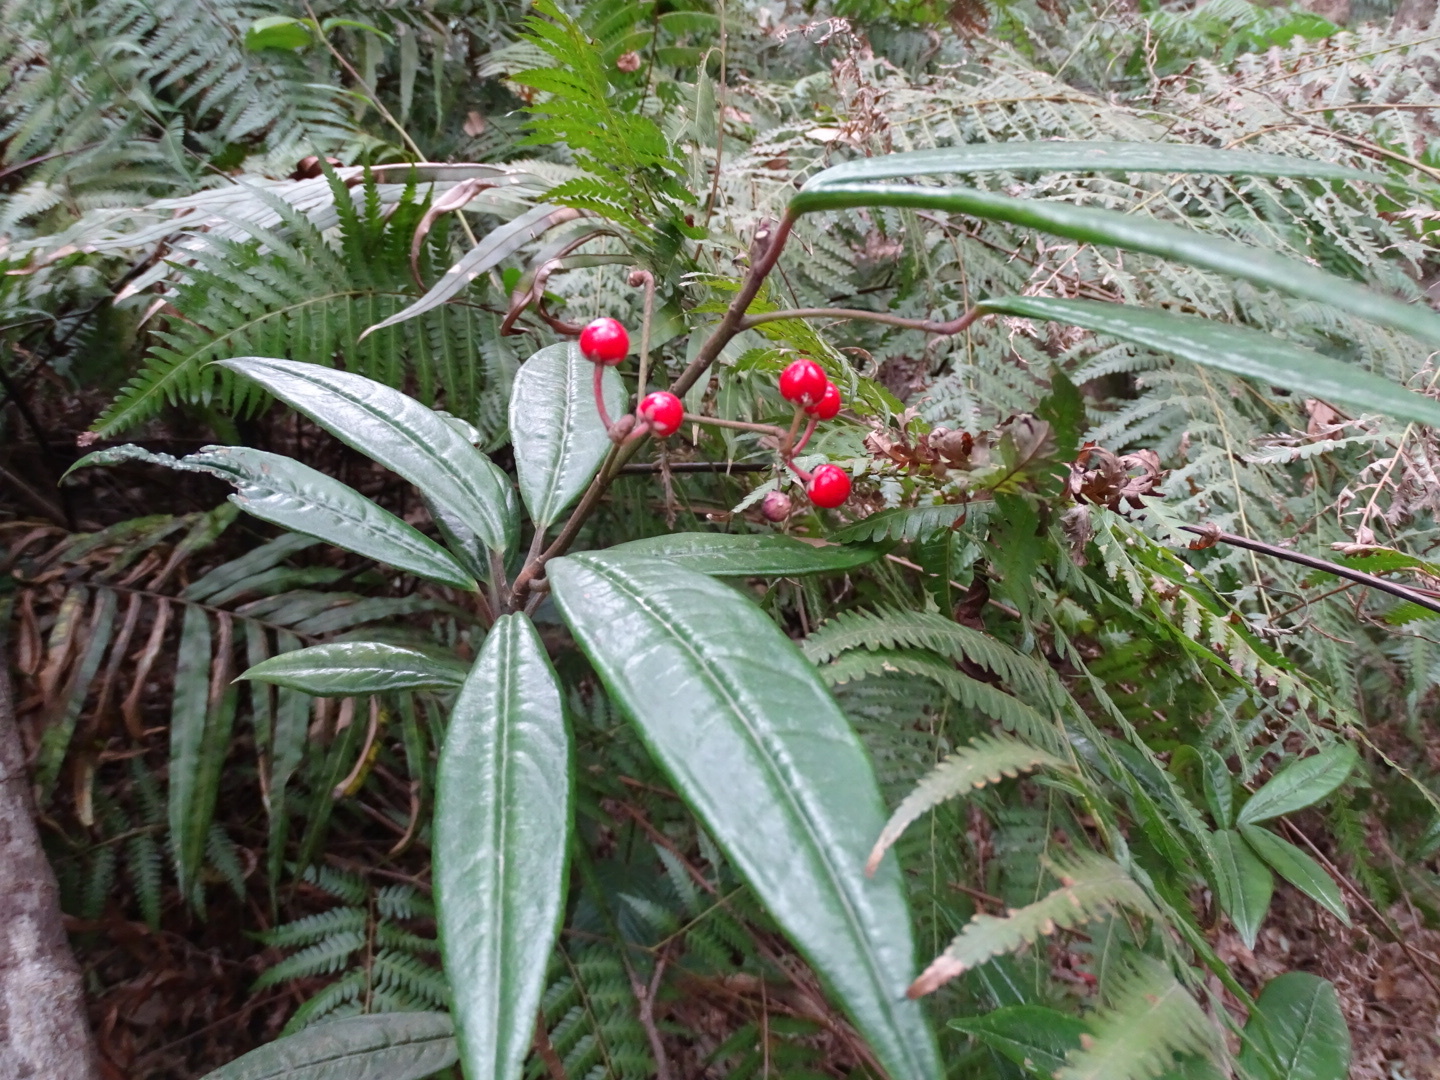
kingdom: Plantae
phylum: Tracheophyta
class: Magnoliopsida
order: Ericales
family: Primulaceae
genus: Ardisia
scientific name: Ardisia lindleyana
